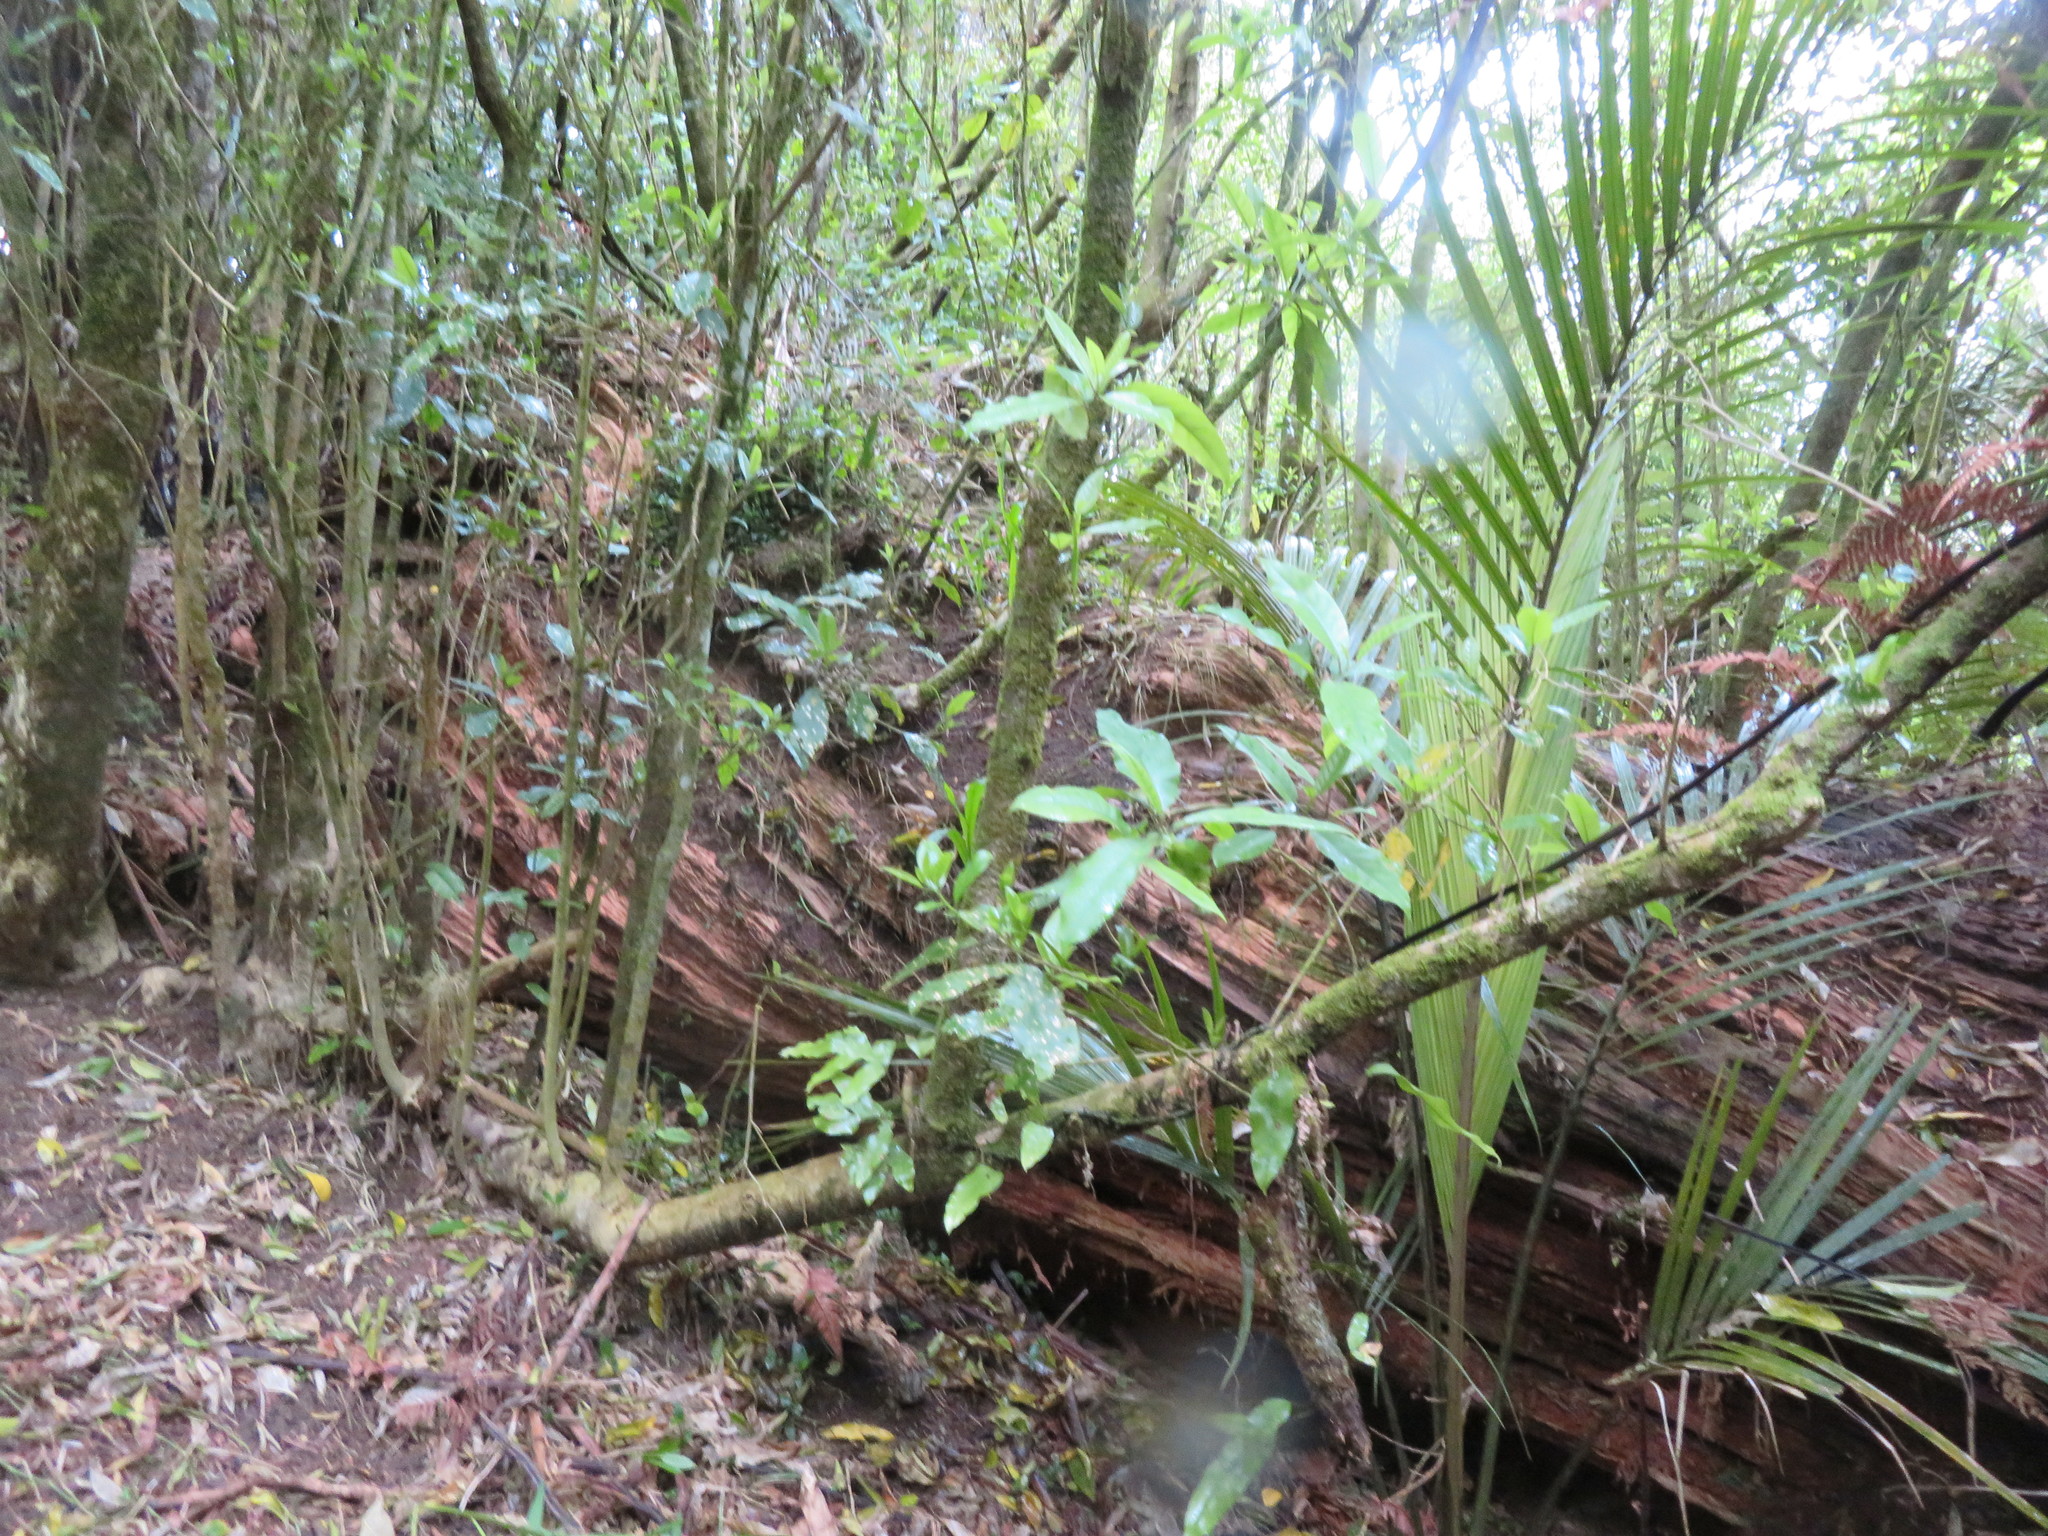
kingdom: Plantae
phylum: Tracheophyta
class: Magnoliopsida
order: Malpighiales
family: Violaceae
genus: Melicytus
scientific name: Melicytus ramiflorus
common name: Mahoe
